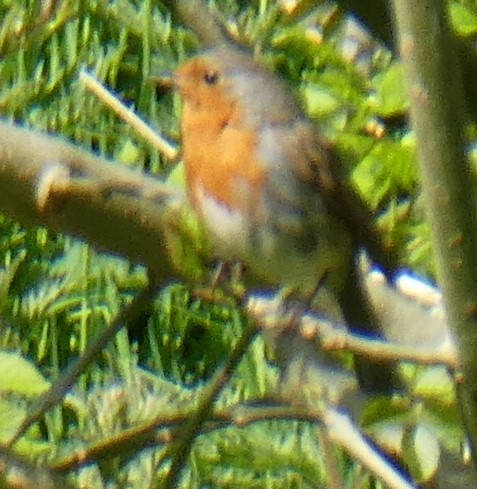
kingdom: Animalia
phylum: Chordata
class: Aves
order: Passeriformes
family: Muscicapidae
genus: Erithacus
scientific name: Erithacus rubecula
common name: European robin
